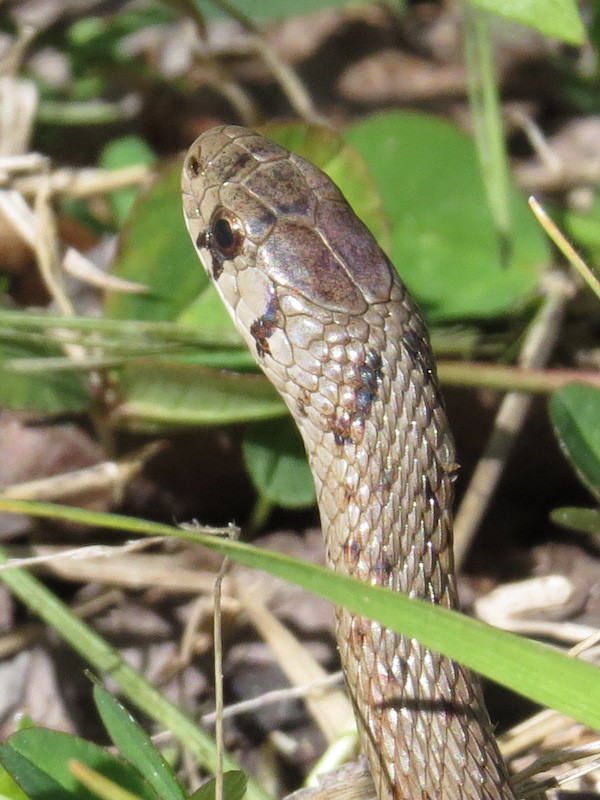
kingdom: Animalia
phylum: Chordata
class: Squamata
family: Colubridae
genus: Storeria
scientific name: Storeria dekayi
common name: (dekay’s) brown snake
